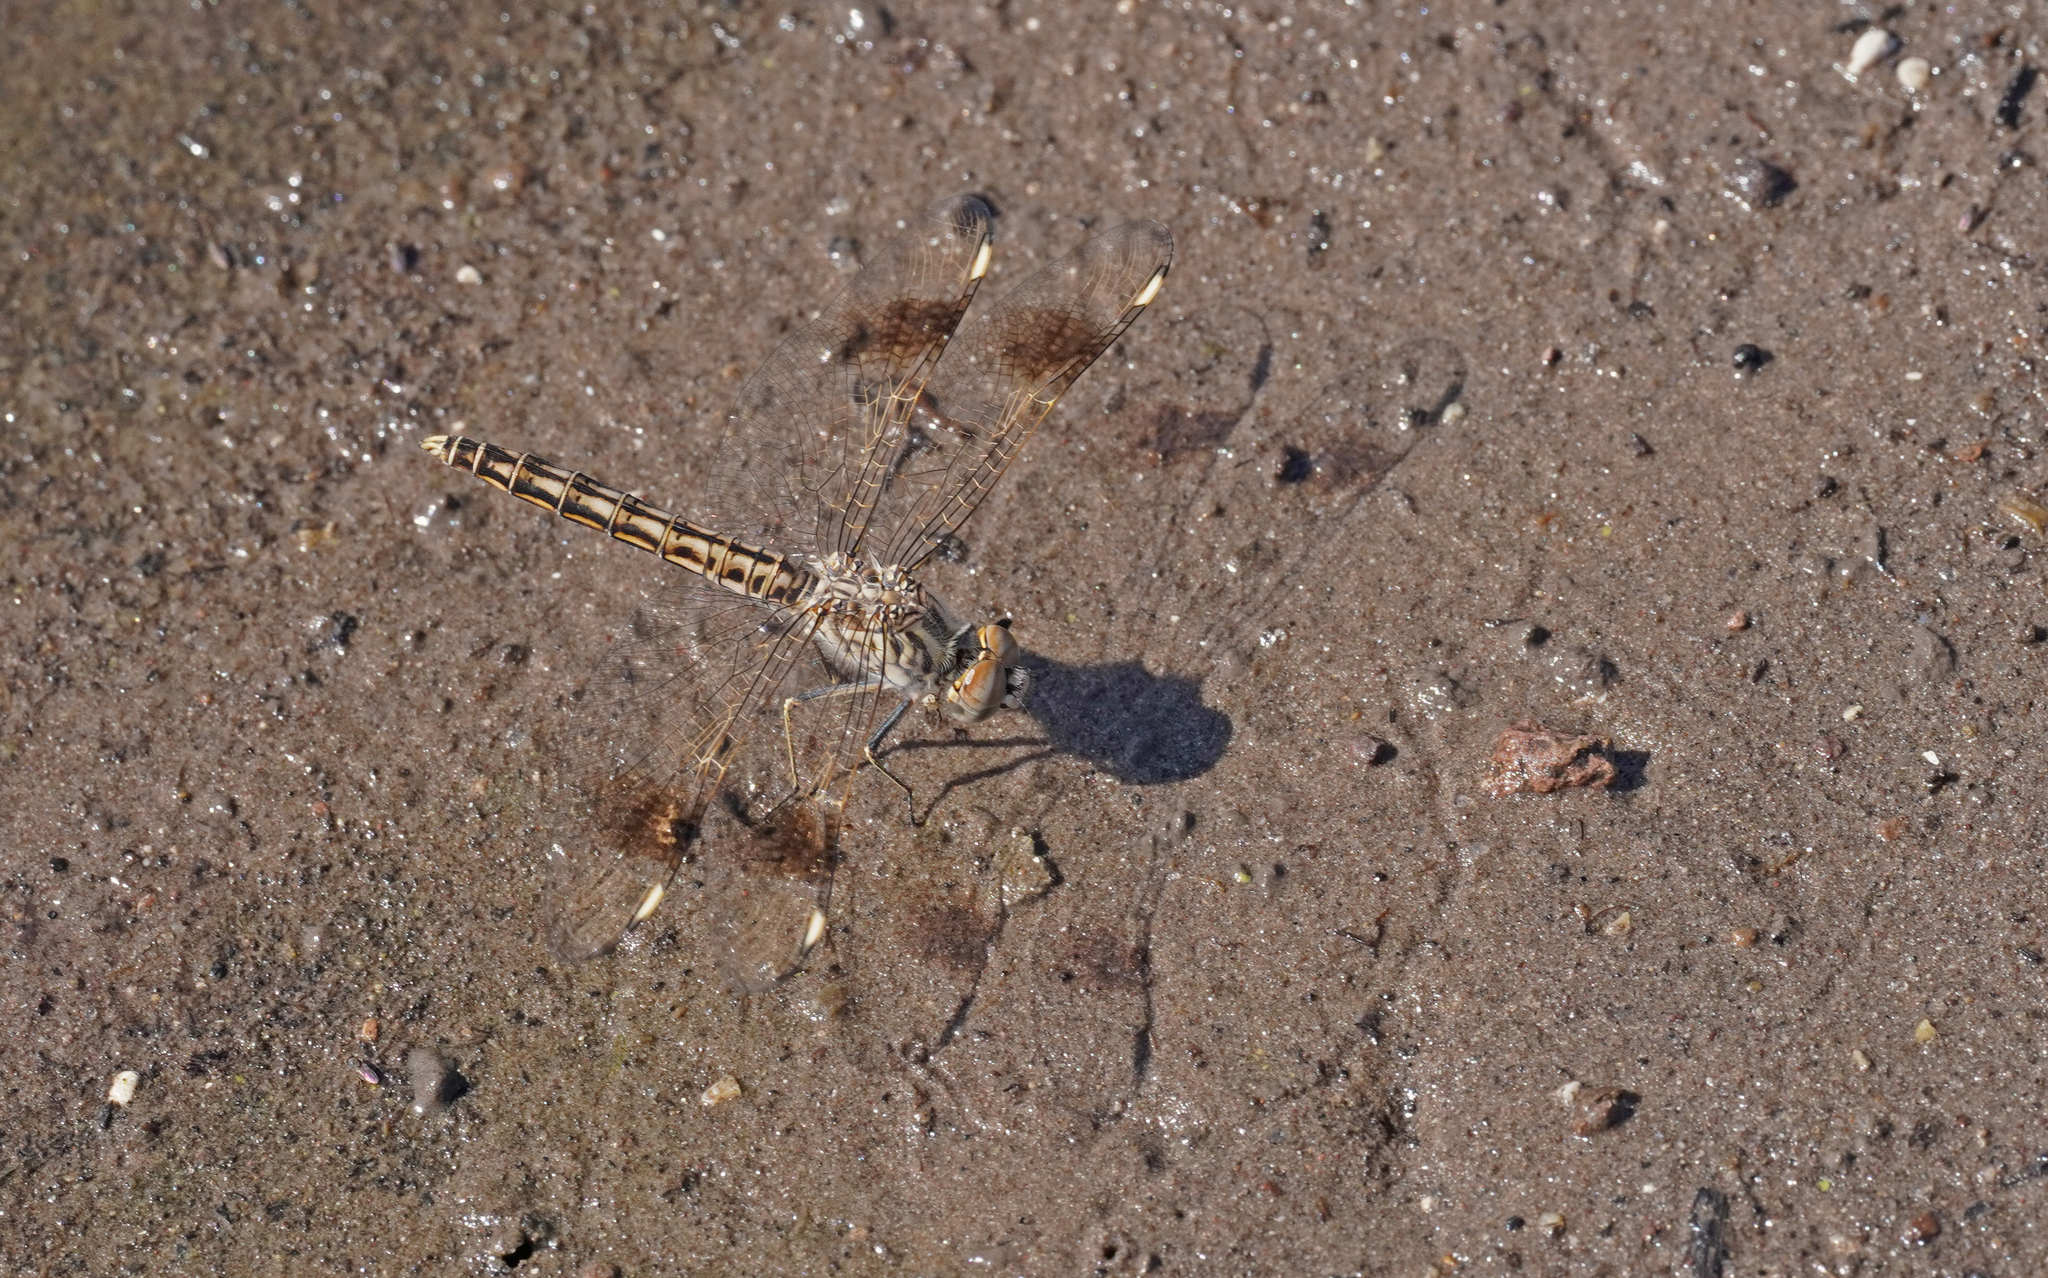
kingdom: Animalia
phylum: Arthropoda
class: Insecta
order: Odonata
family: Libellulidae
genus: Brachythemis
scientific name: Brachythemis impartita
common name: Banded groundling
